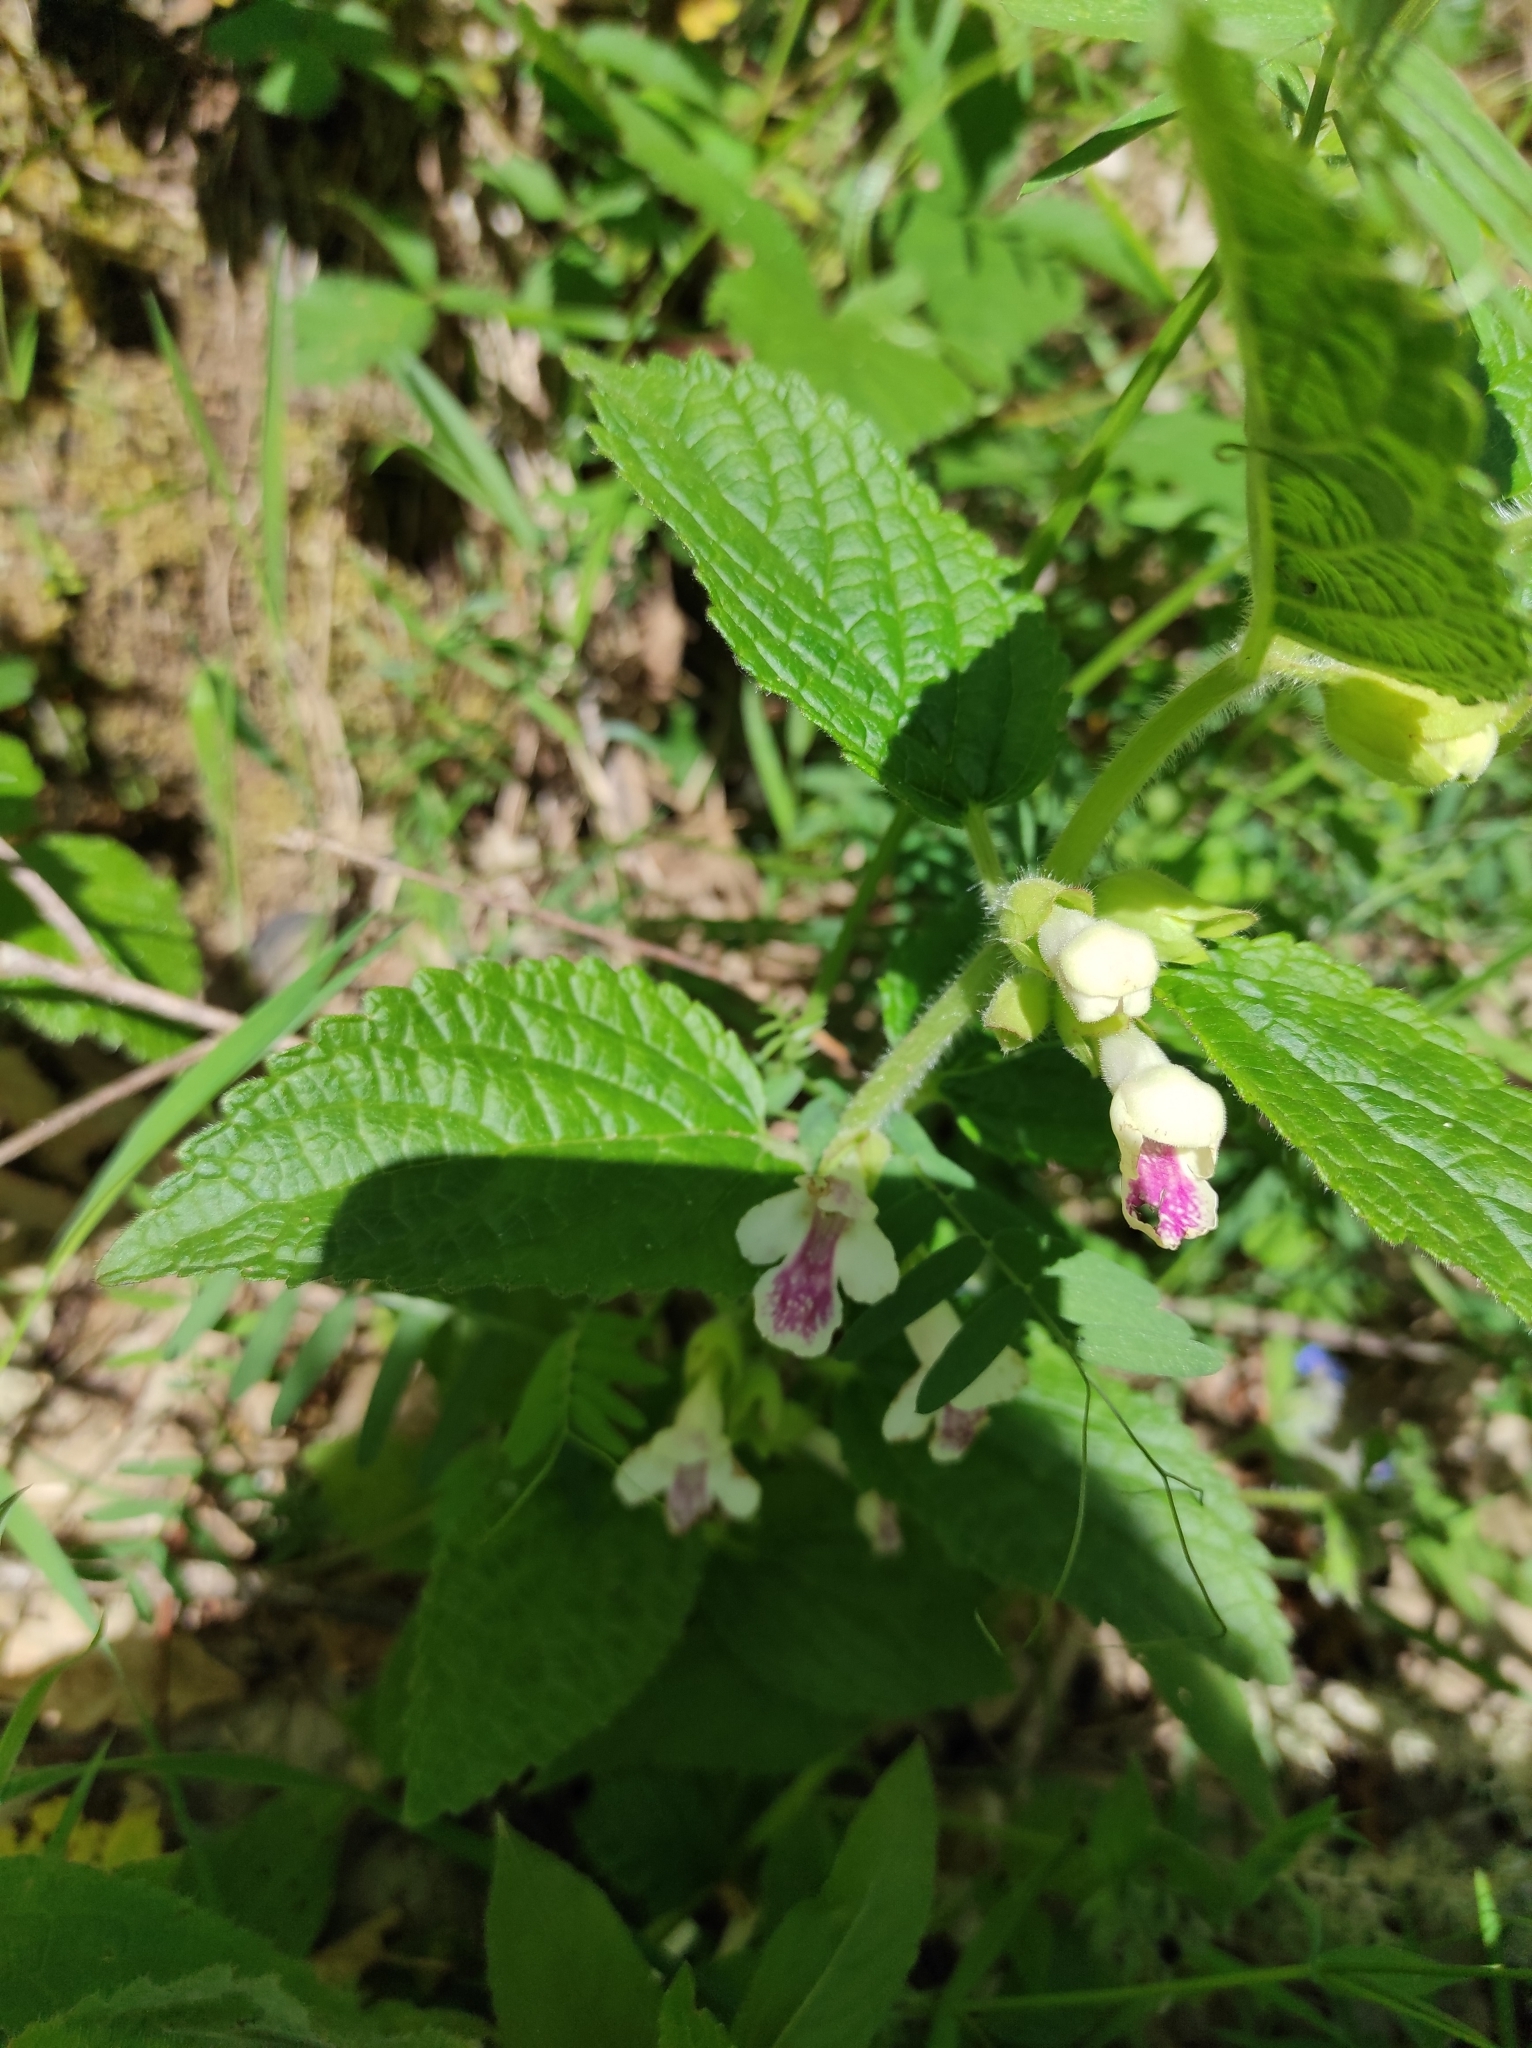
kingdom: Plantae
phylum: Tracheophyta
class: Magnoliopsida
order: Lamiales
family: Lamiaceae
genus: Melittis
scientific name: Melittis melissophyllum
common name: Bastard balm
